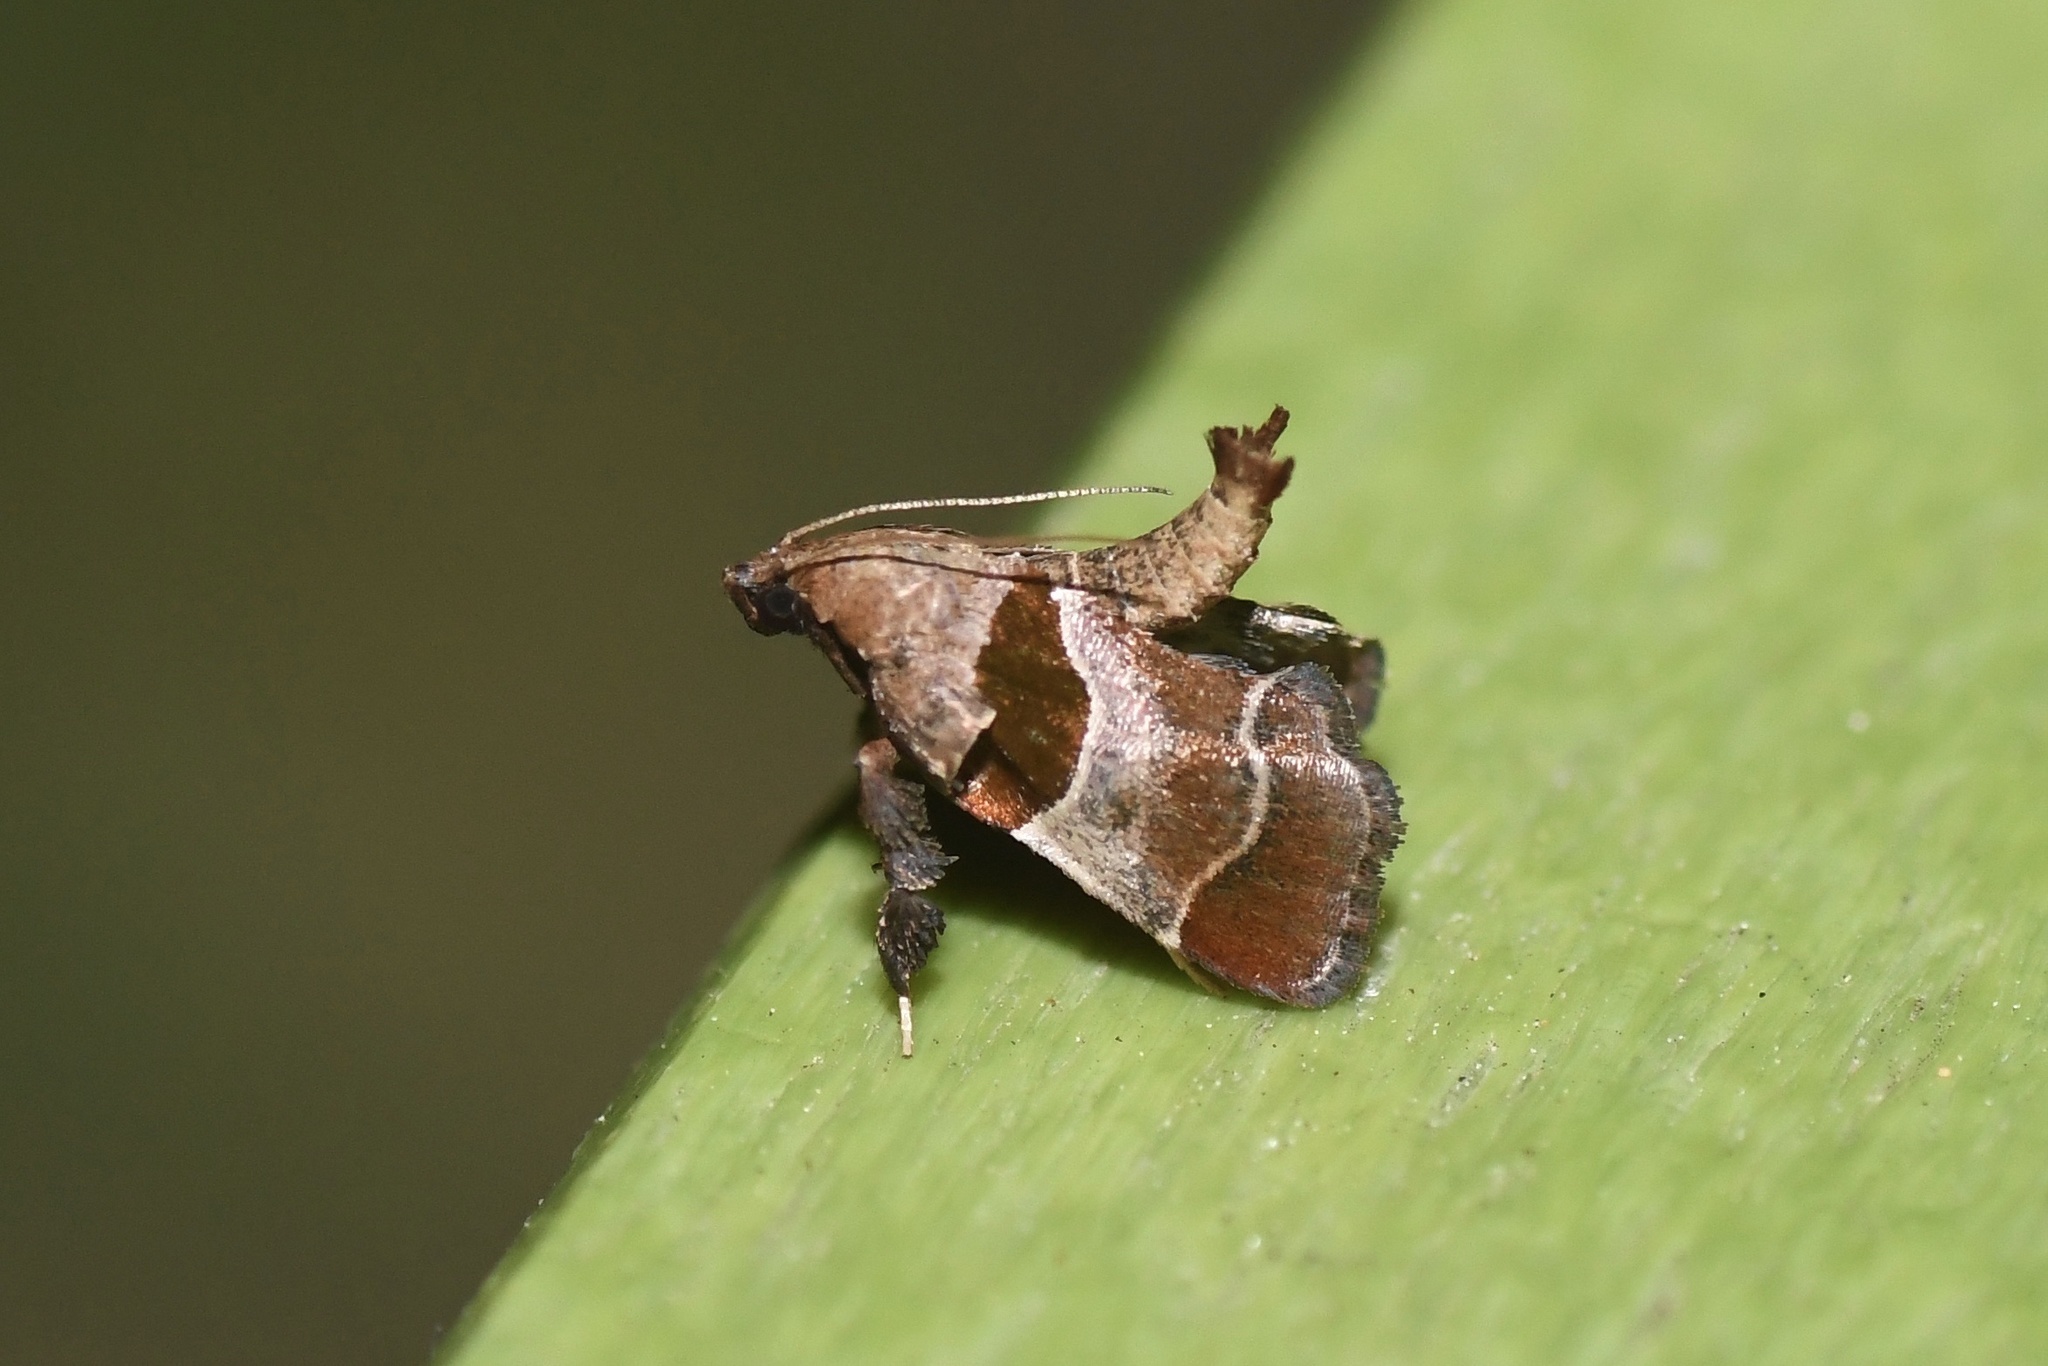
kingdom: Animalia
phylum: Arthropoda
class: Insecta
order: Lepidoptera
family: Pyralidae
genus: Tosale
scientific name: Tosale oviplagalis
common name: Dimorphic tosale moth
